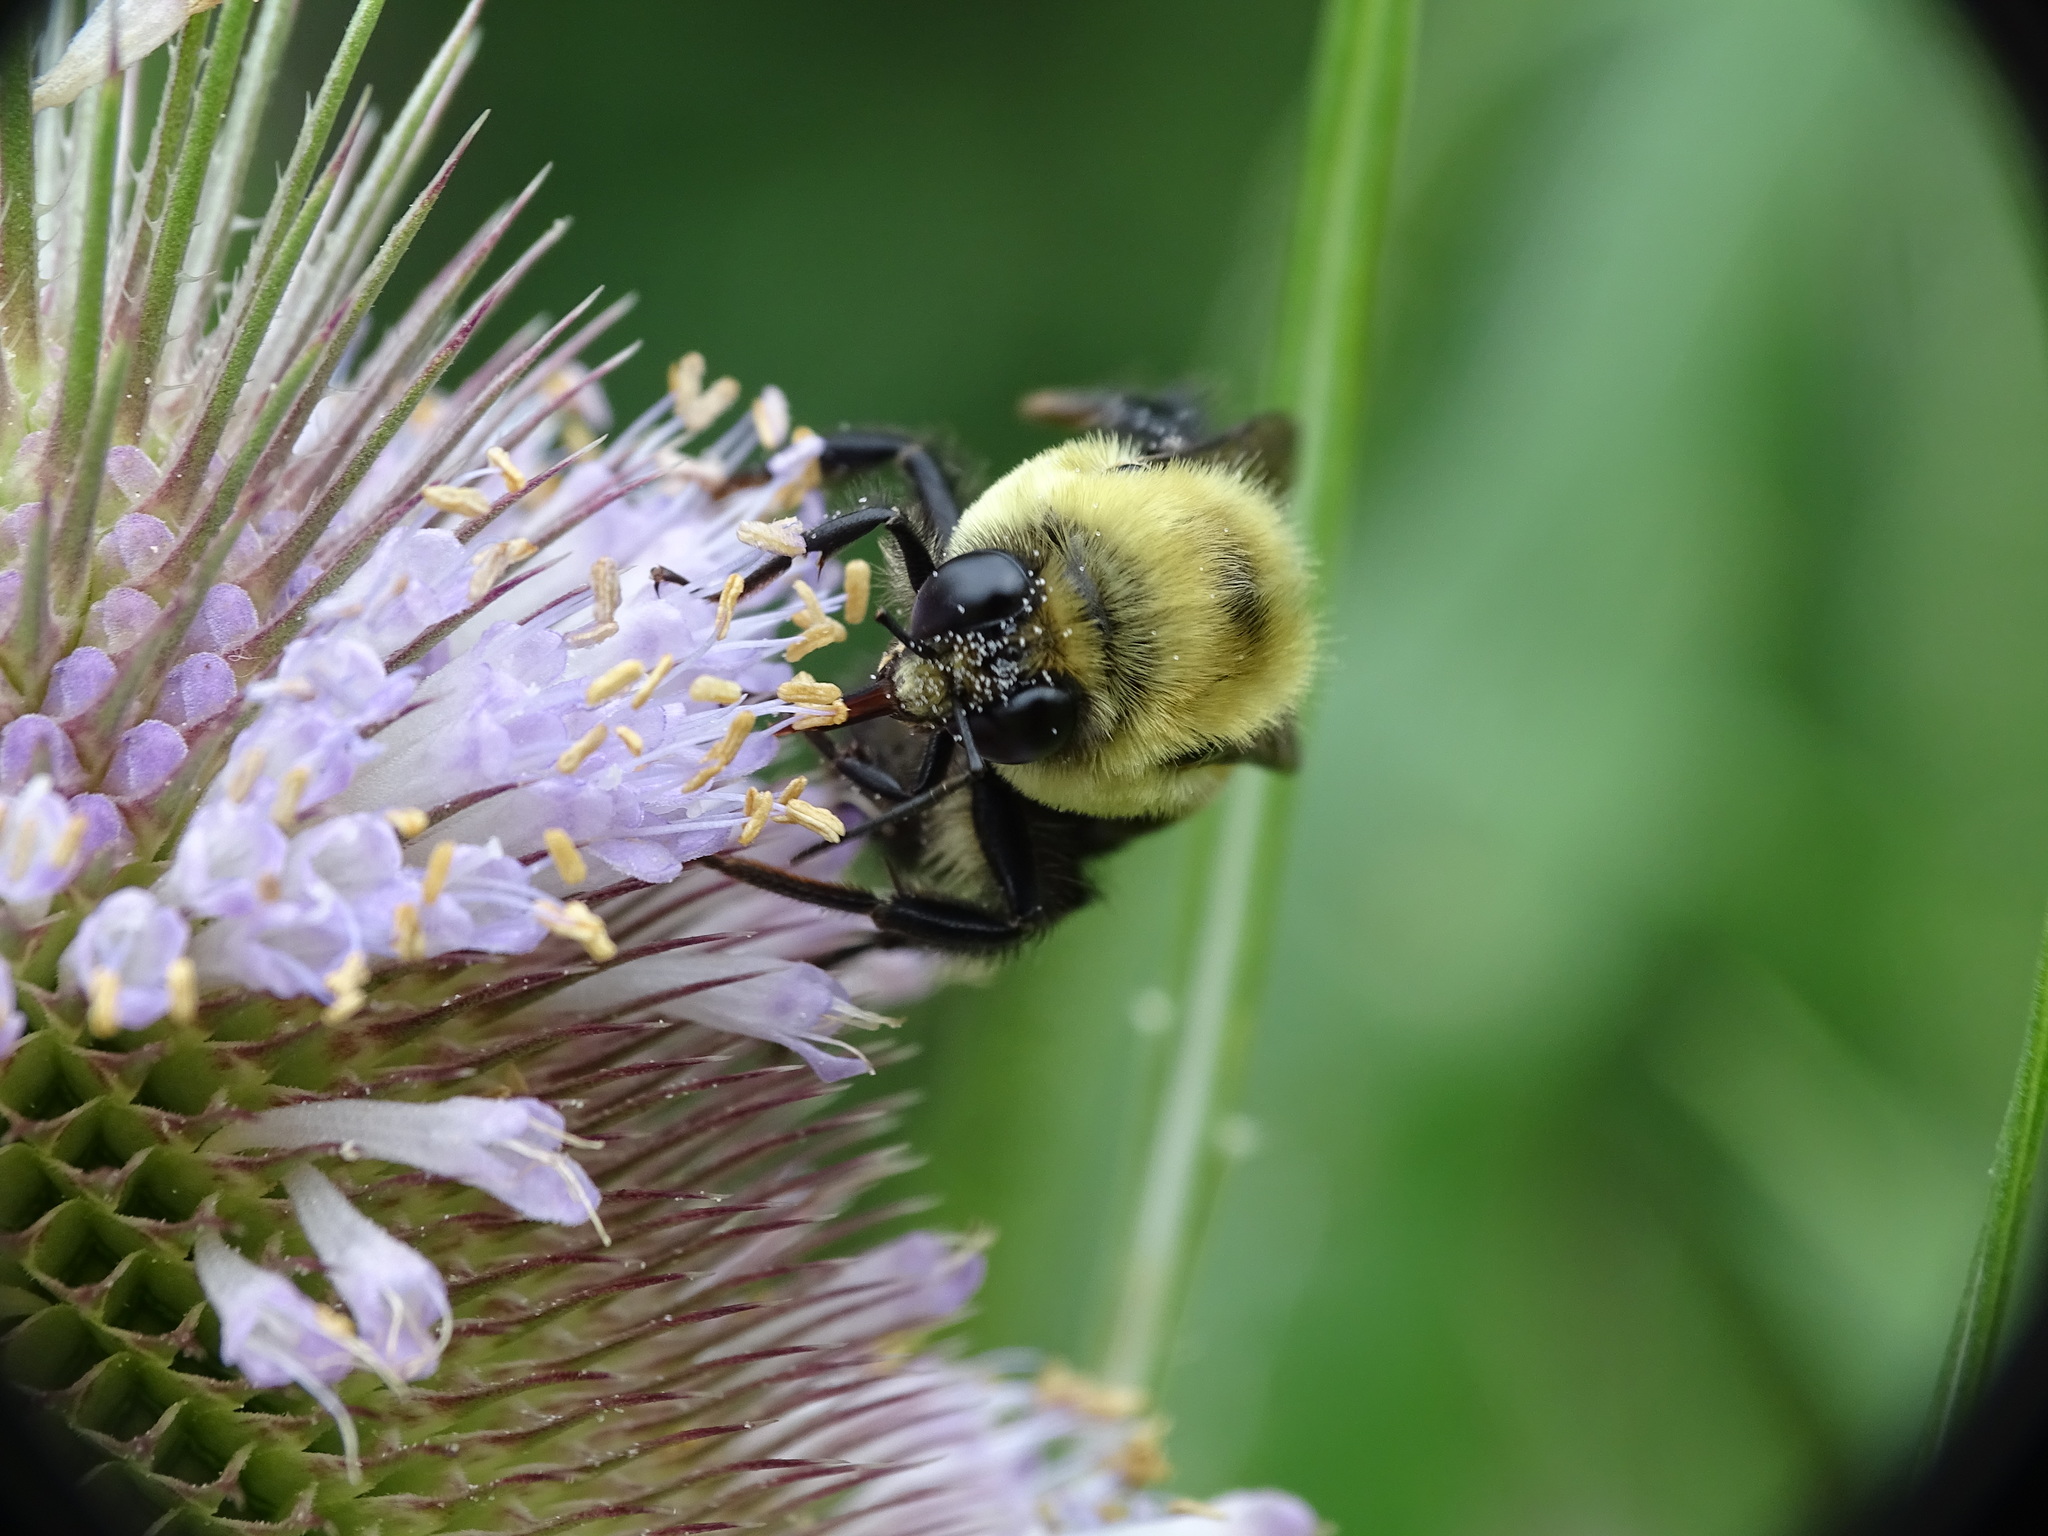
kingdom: Animalia
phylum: Arthropoda
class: Insecta
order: Hymenoptera
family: Apidae
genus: Bombus
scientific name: Bombus griseocollis
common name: Brown-belted bumble bee
